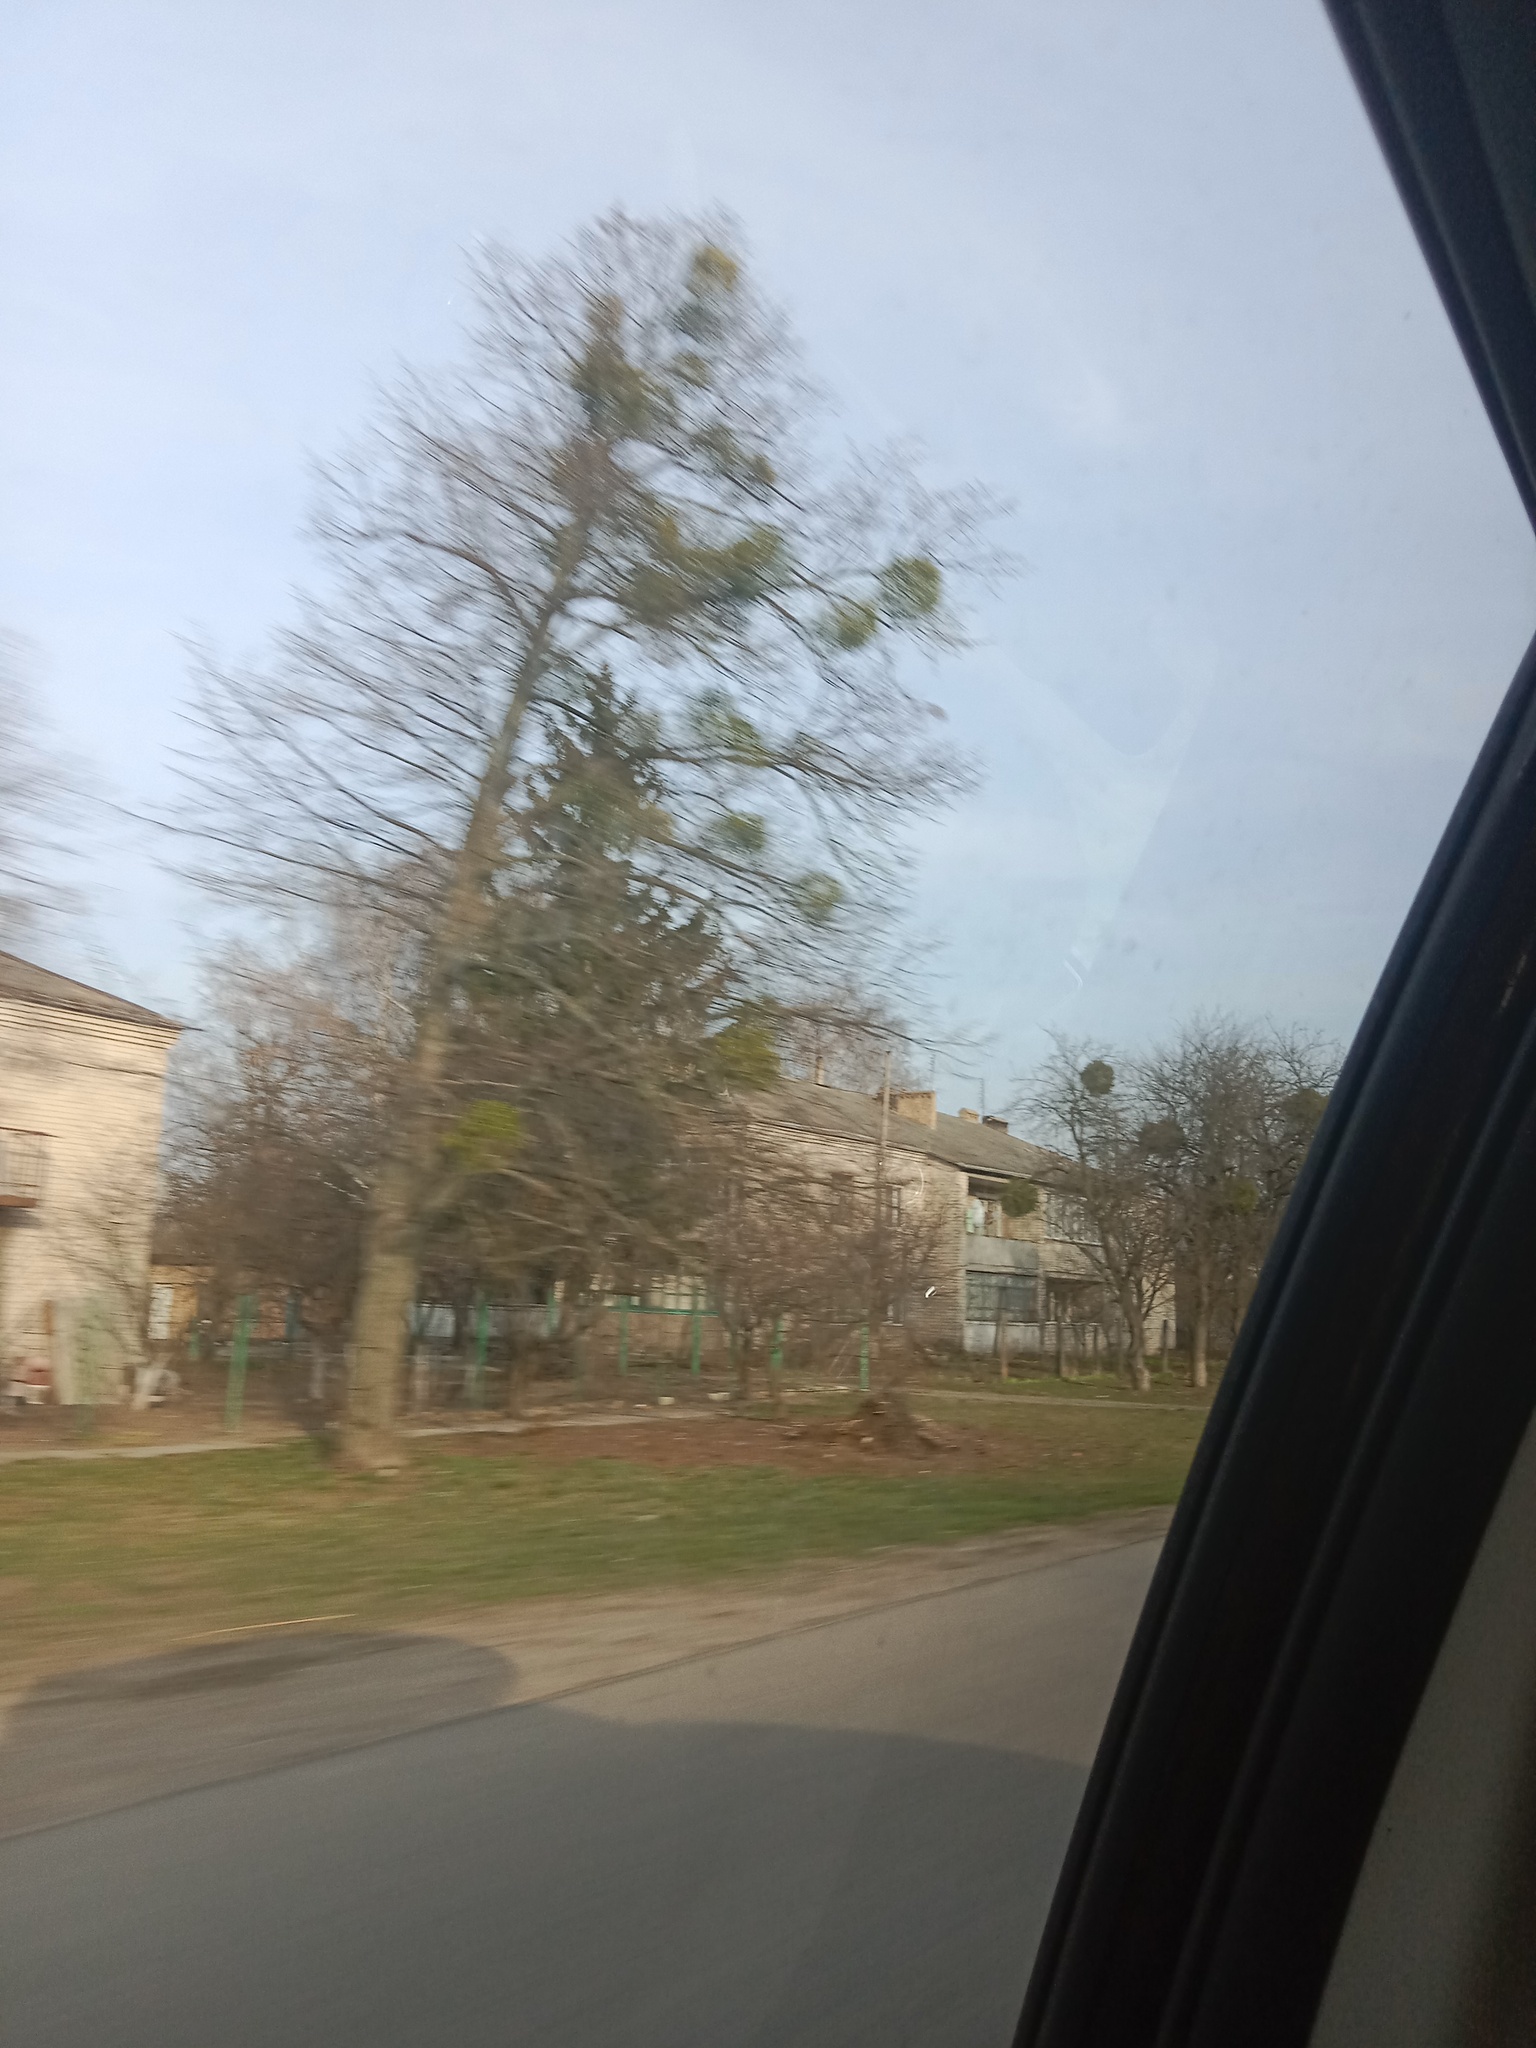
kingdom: Plantae
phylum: Tracheophyta
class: Magnoliopsida
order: Santalales
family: Viscaceae
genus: Viscum
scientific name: Viscum album
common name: Mistletoe
